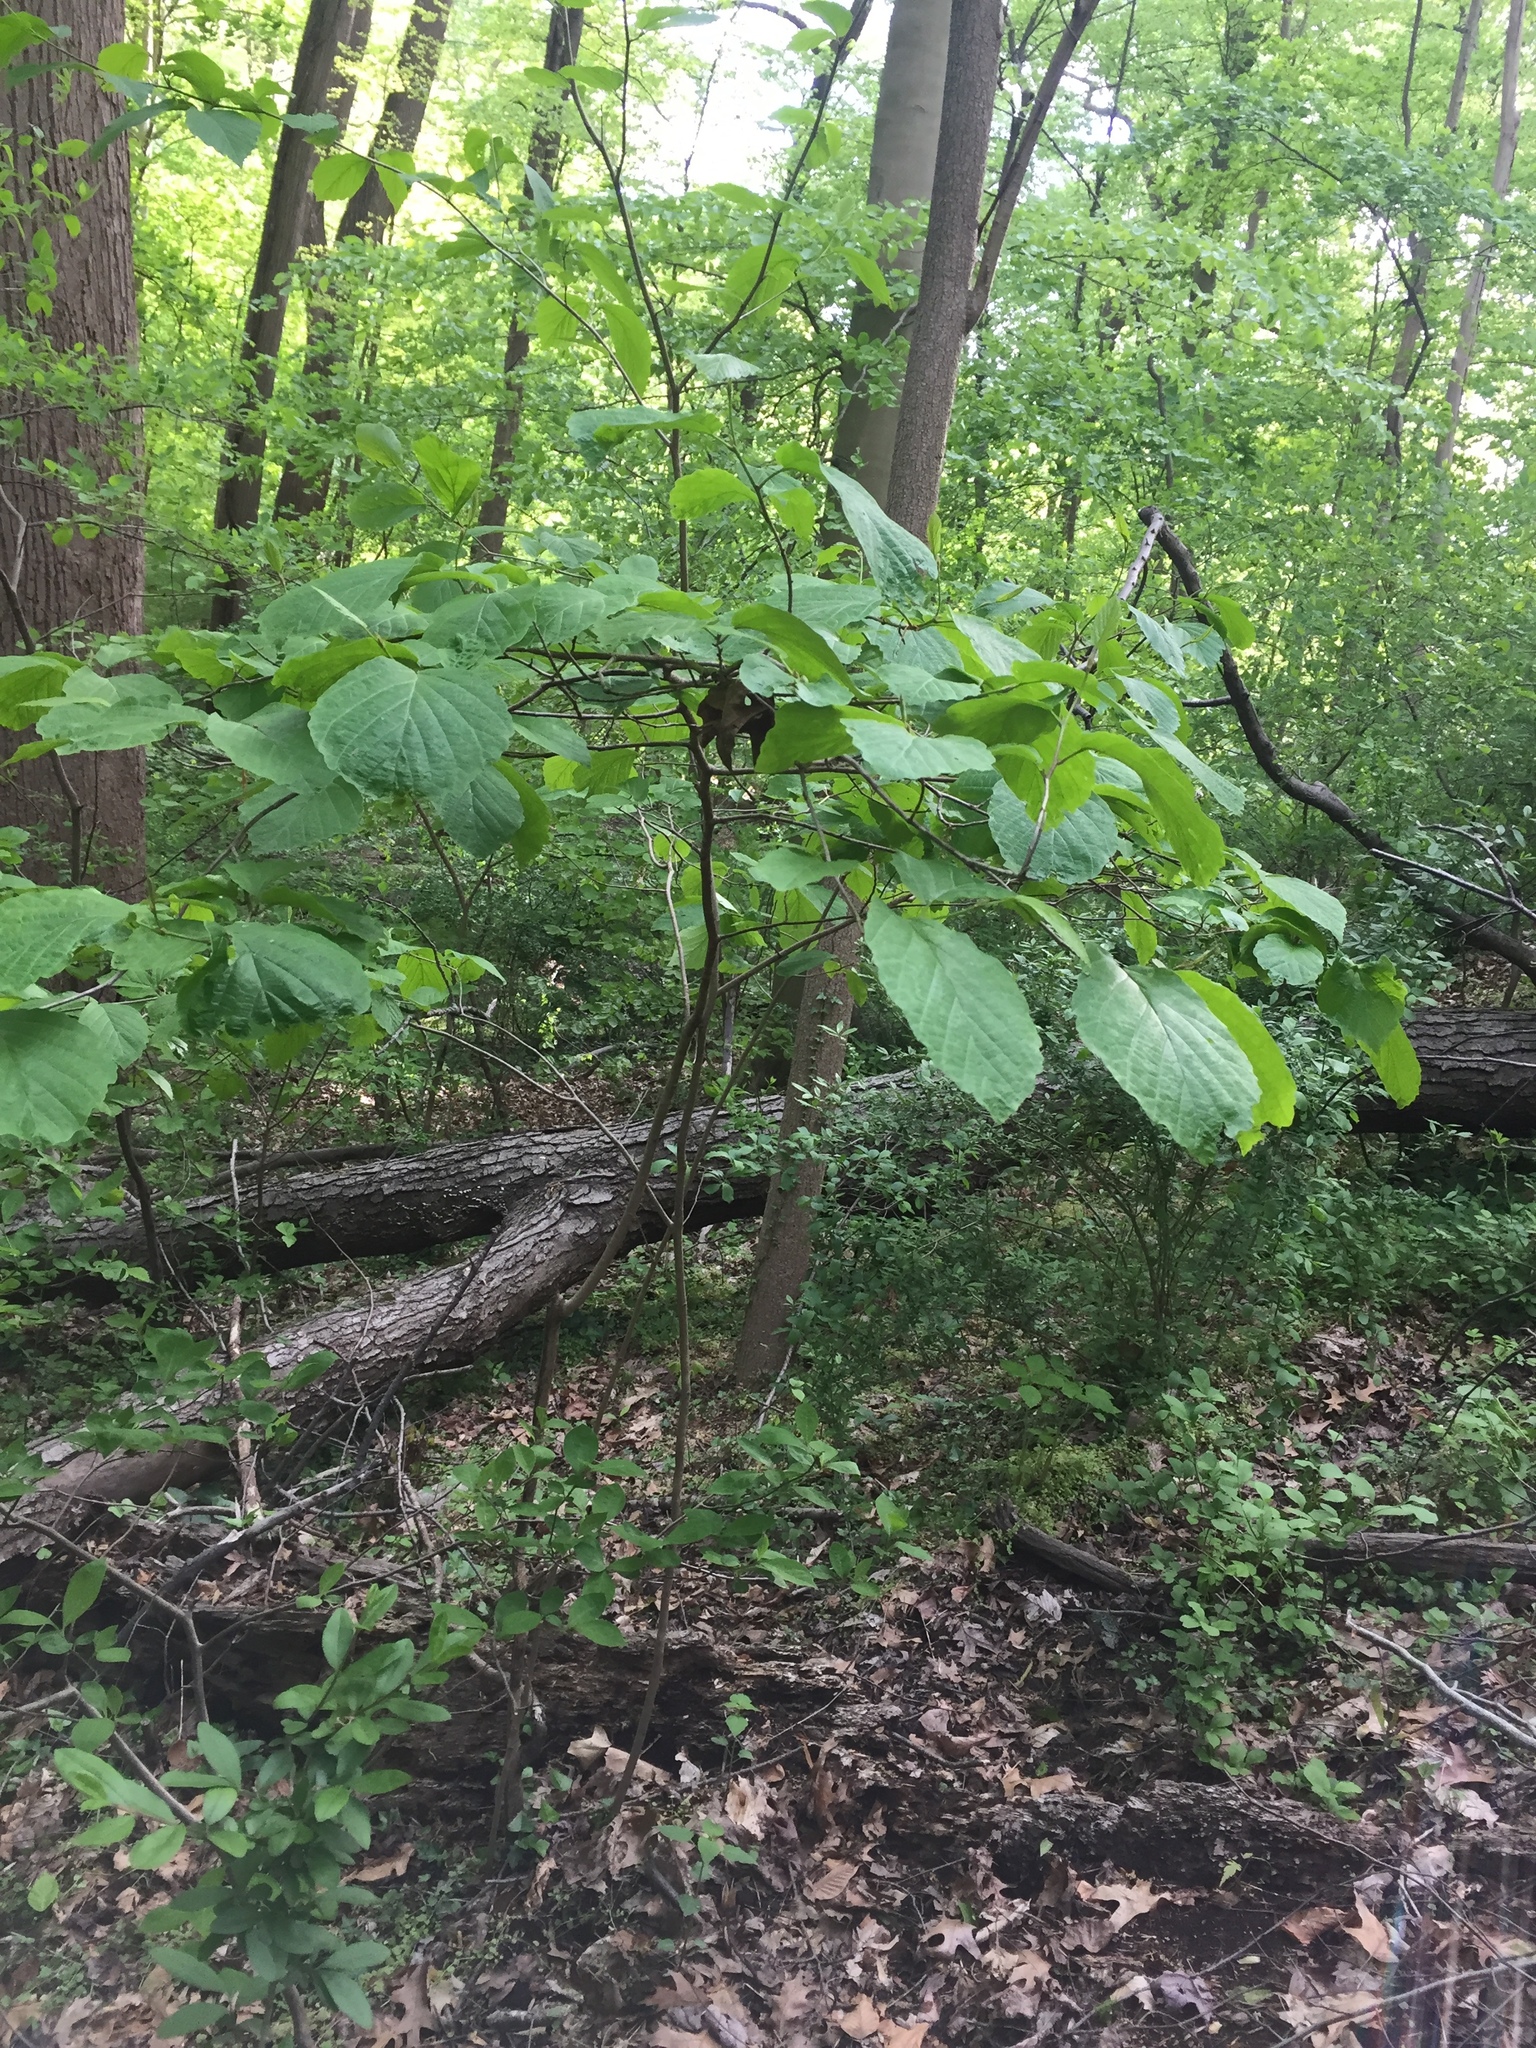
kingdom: Plantae
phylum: Tracheophyta
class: Magnoliopsida
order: Saxifragales
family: Hamamelidaceae
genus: Hamamelis
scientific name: Hamamelis virginiana
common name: Witch-hazel
